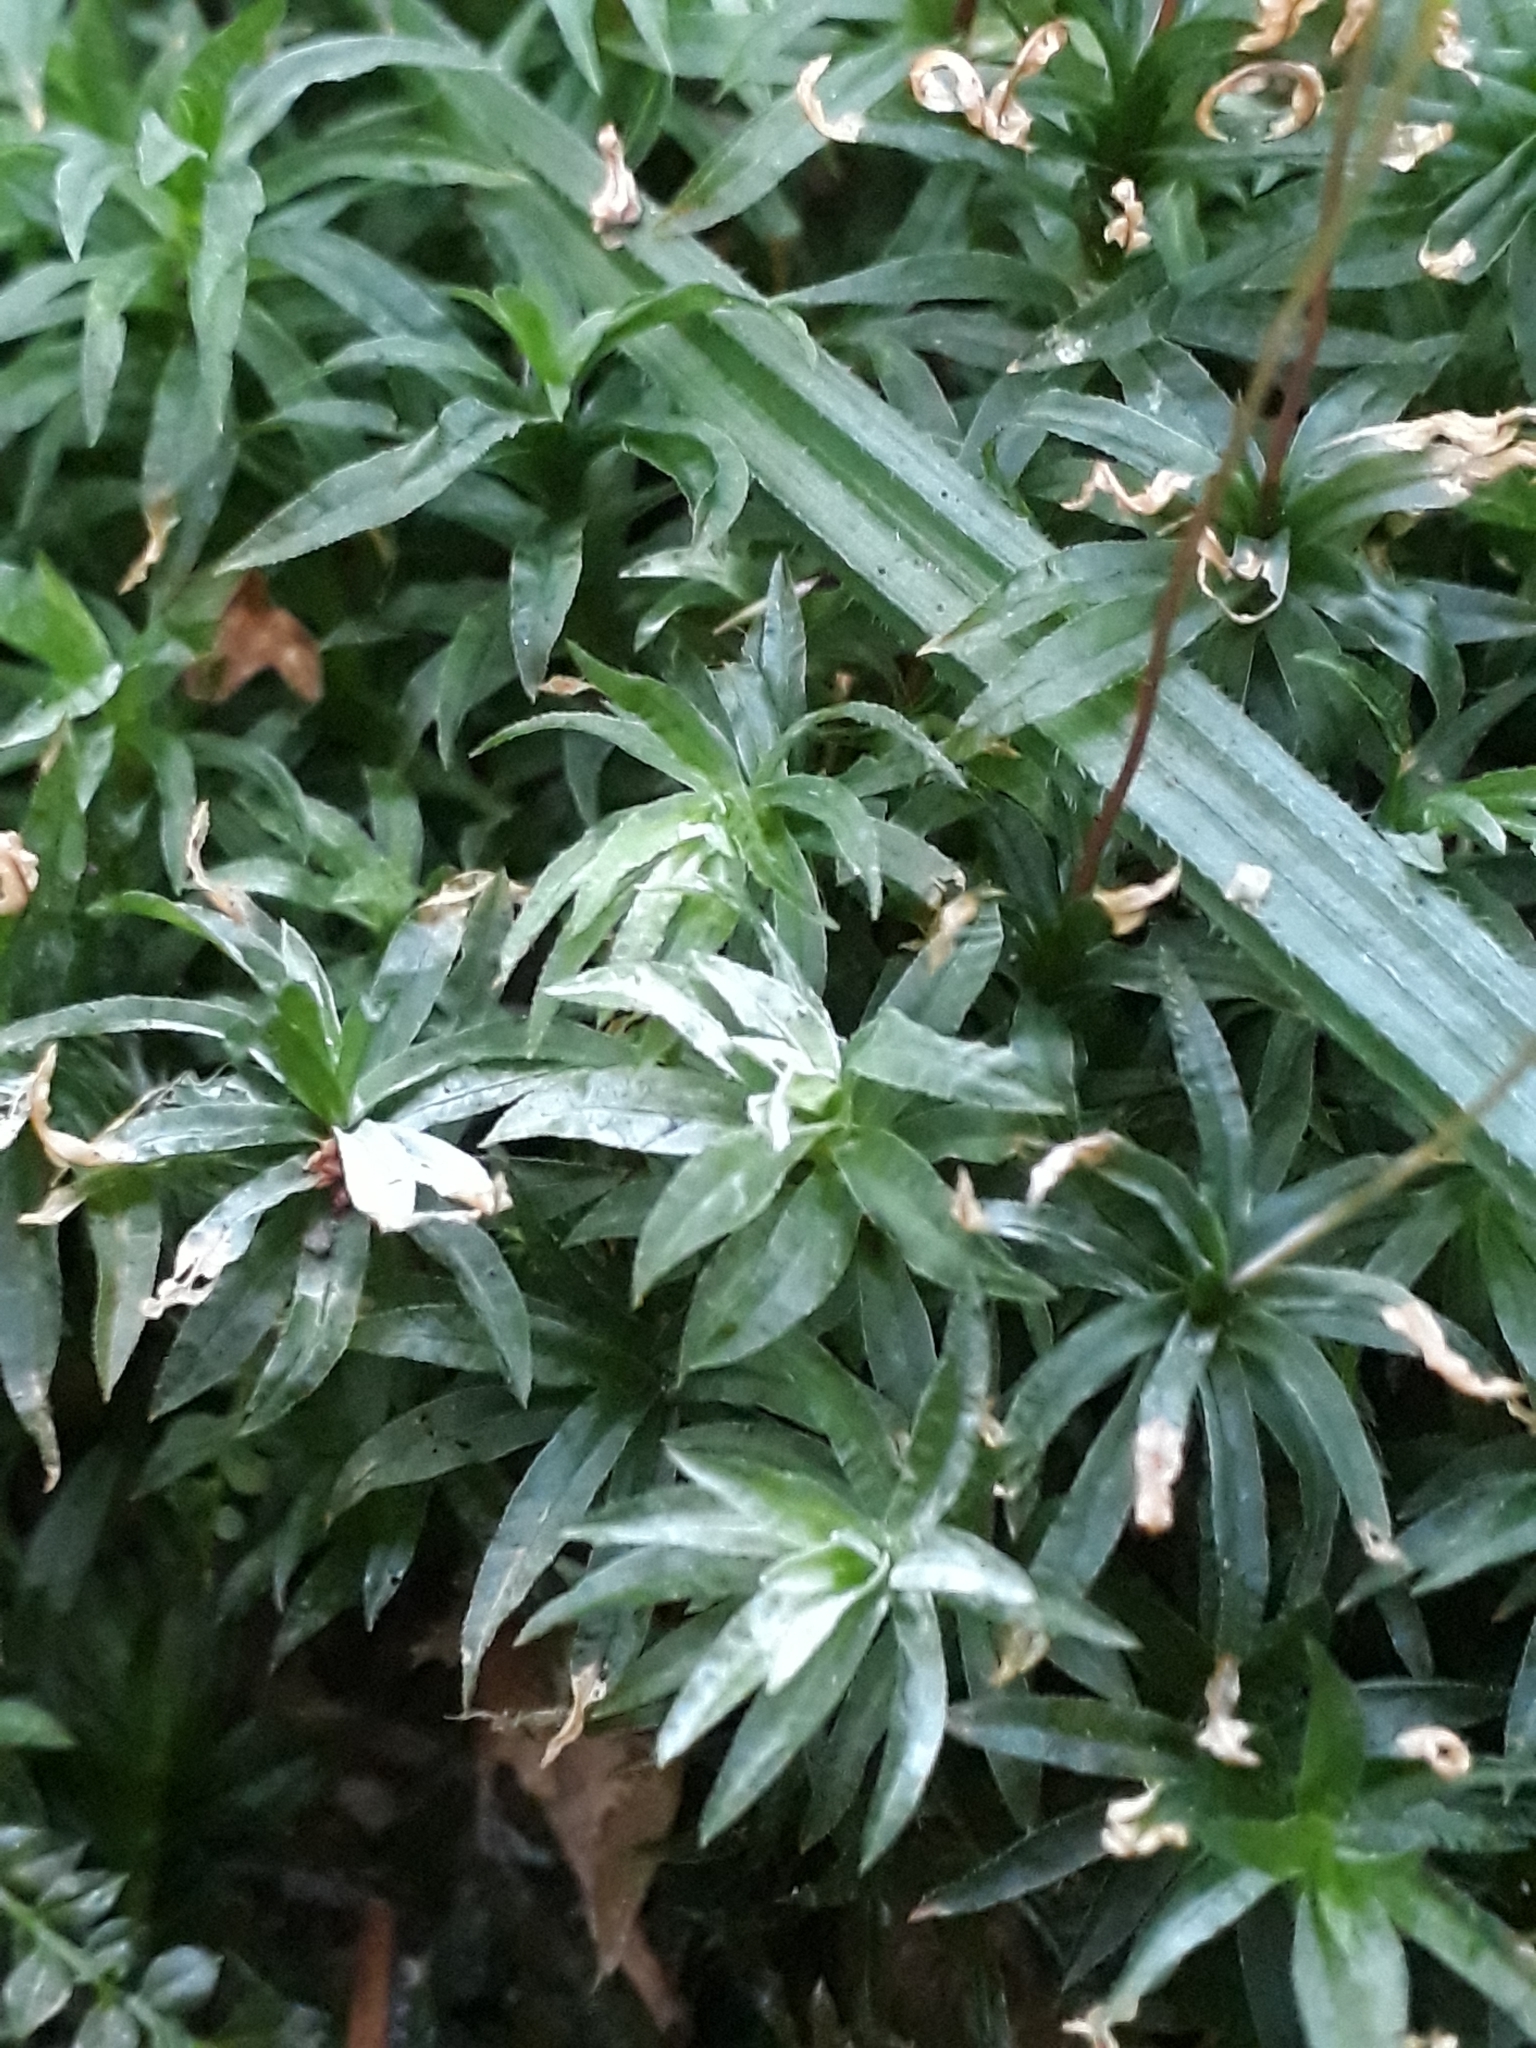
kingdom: Plantae
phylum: Bryophyta
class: Polytrichopsida
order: Polytrichales
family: Polytrichaceae
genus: Atrichum
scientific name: Atrichum undulatum
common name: Common smoothcap
